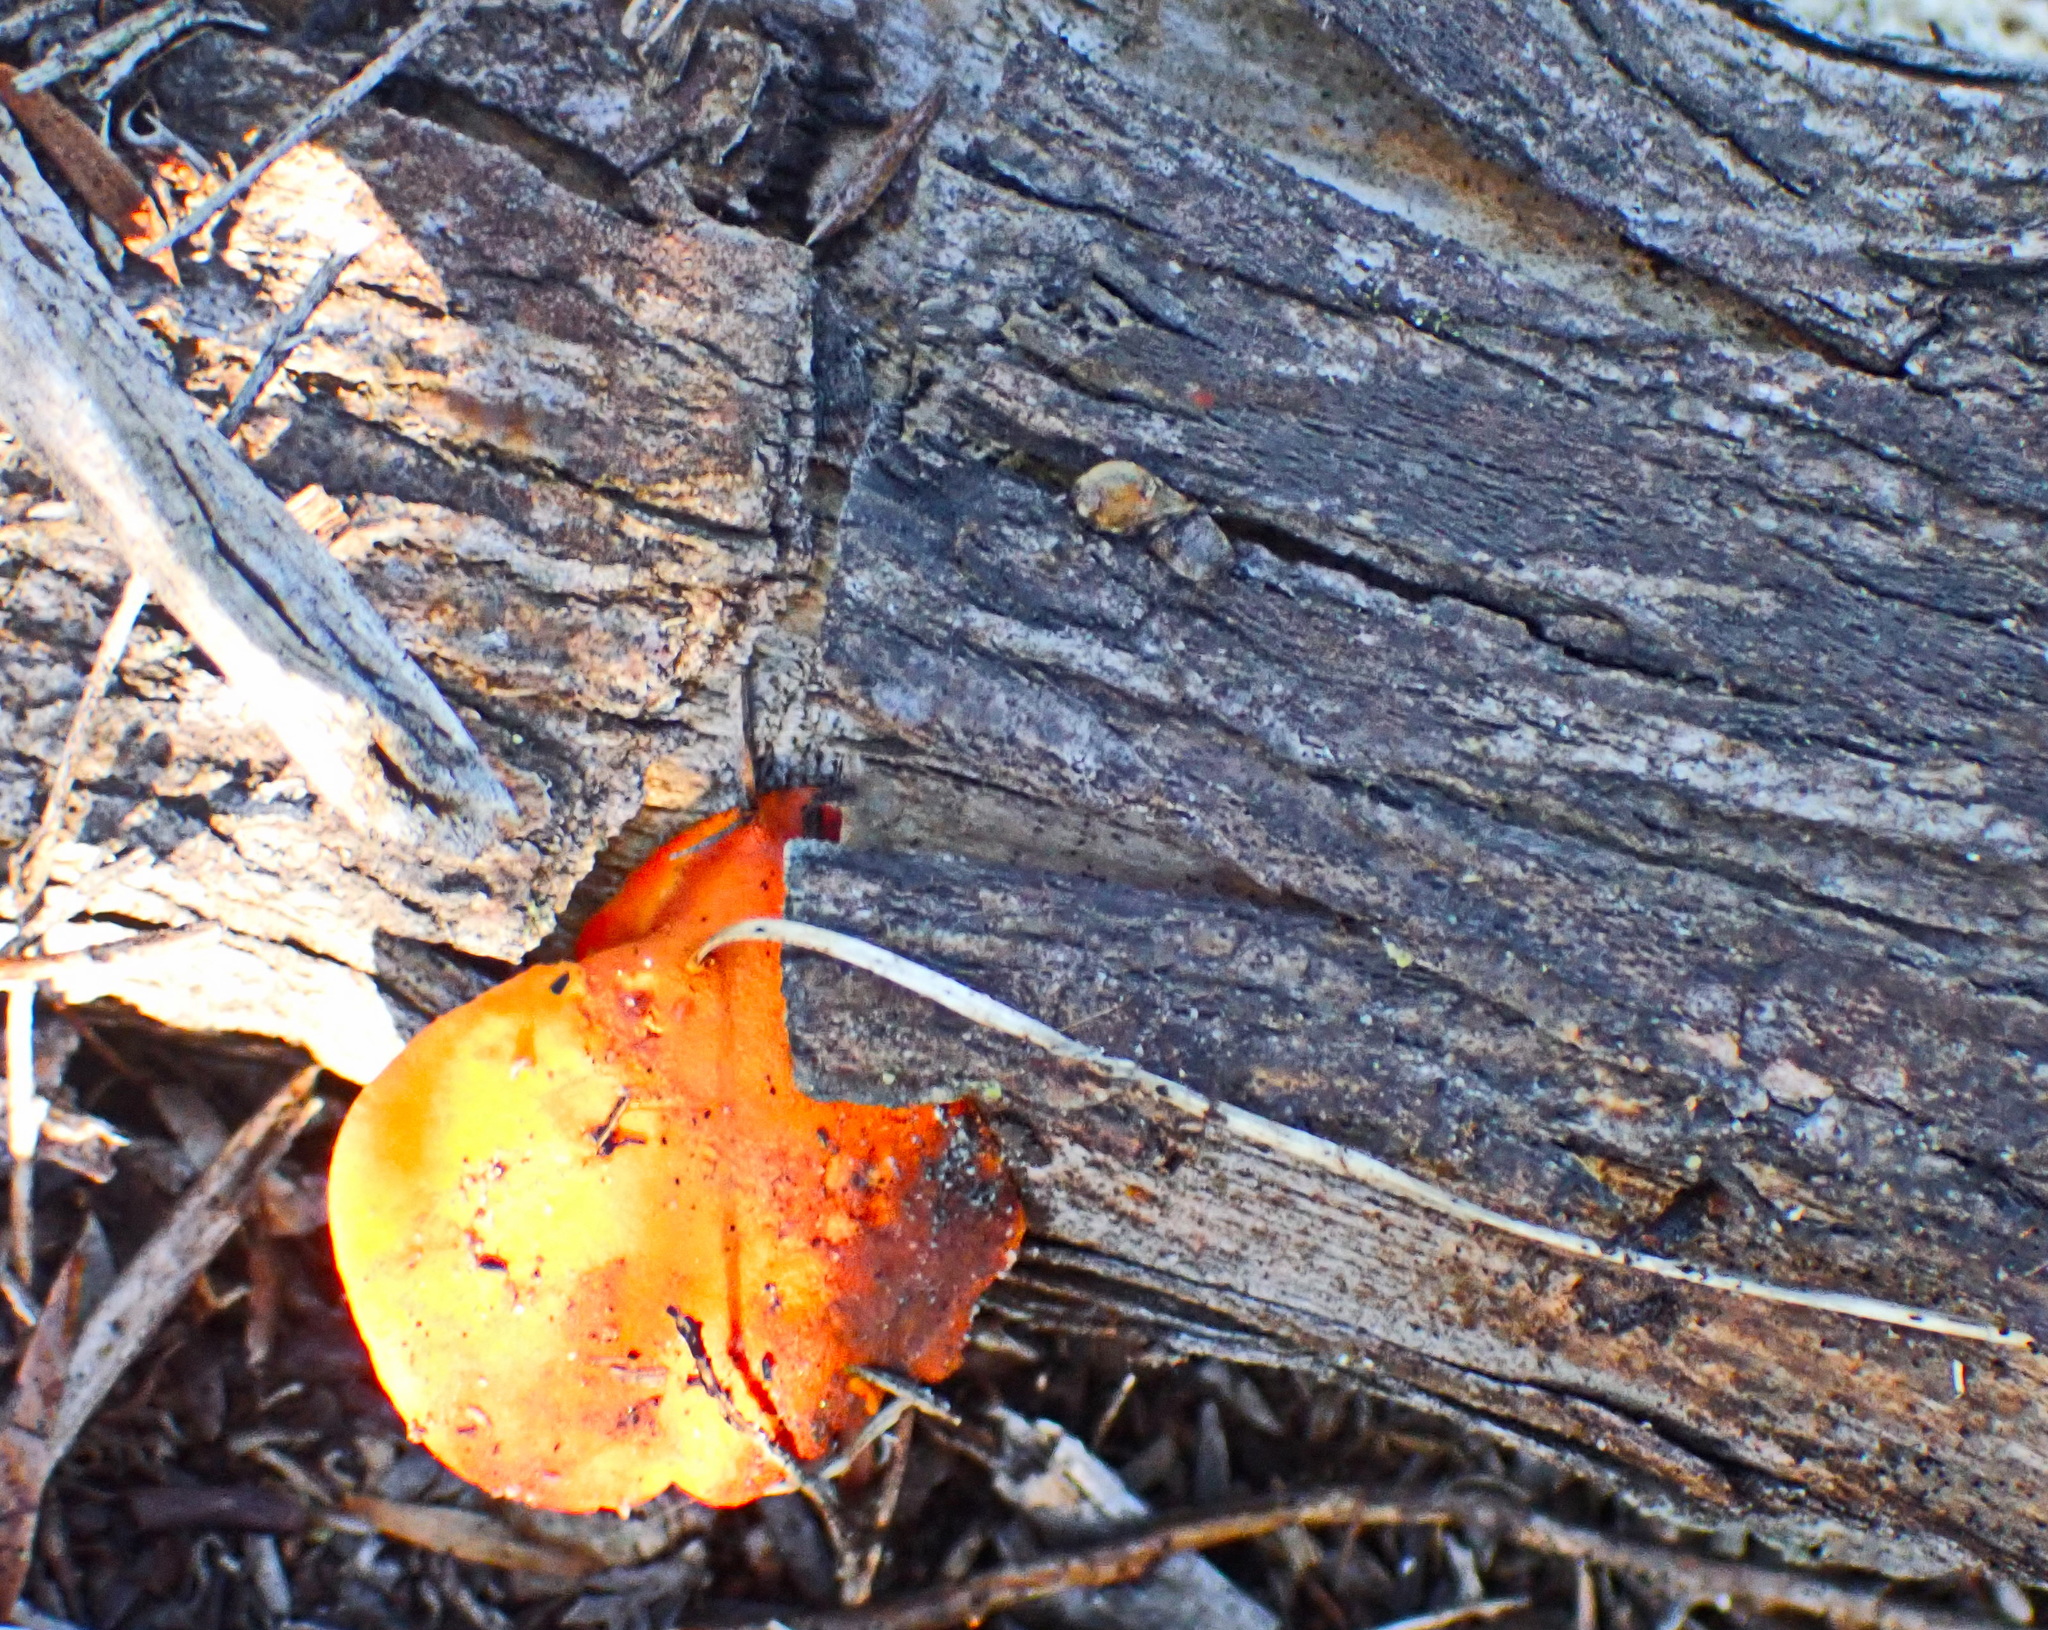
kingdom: Fungi
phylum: Basidiomycota
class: Agaricomycetes
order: Polyporales
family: Polyporaceae
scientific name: Polyporaceae
